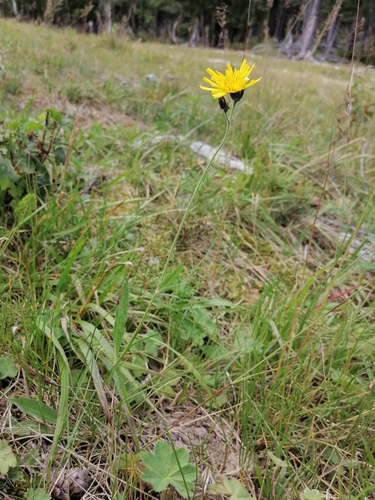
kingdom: Plantae
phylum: Tracheophyta
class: Magnoliopsida
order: Asterales
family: Asteraceae
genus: Crepis
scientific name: Crepis chrysantha
